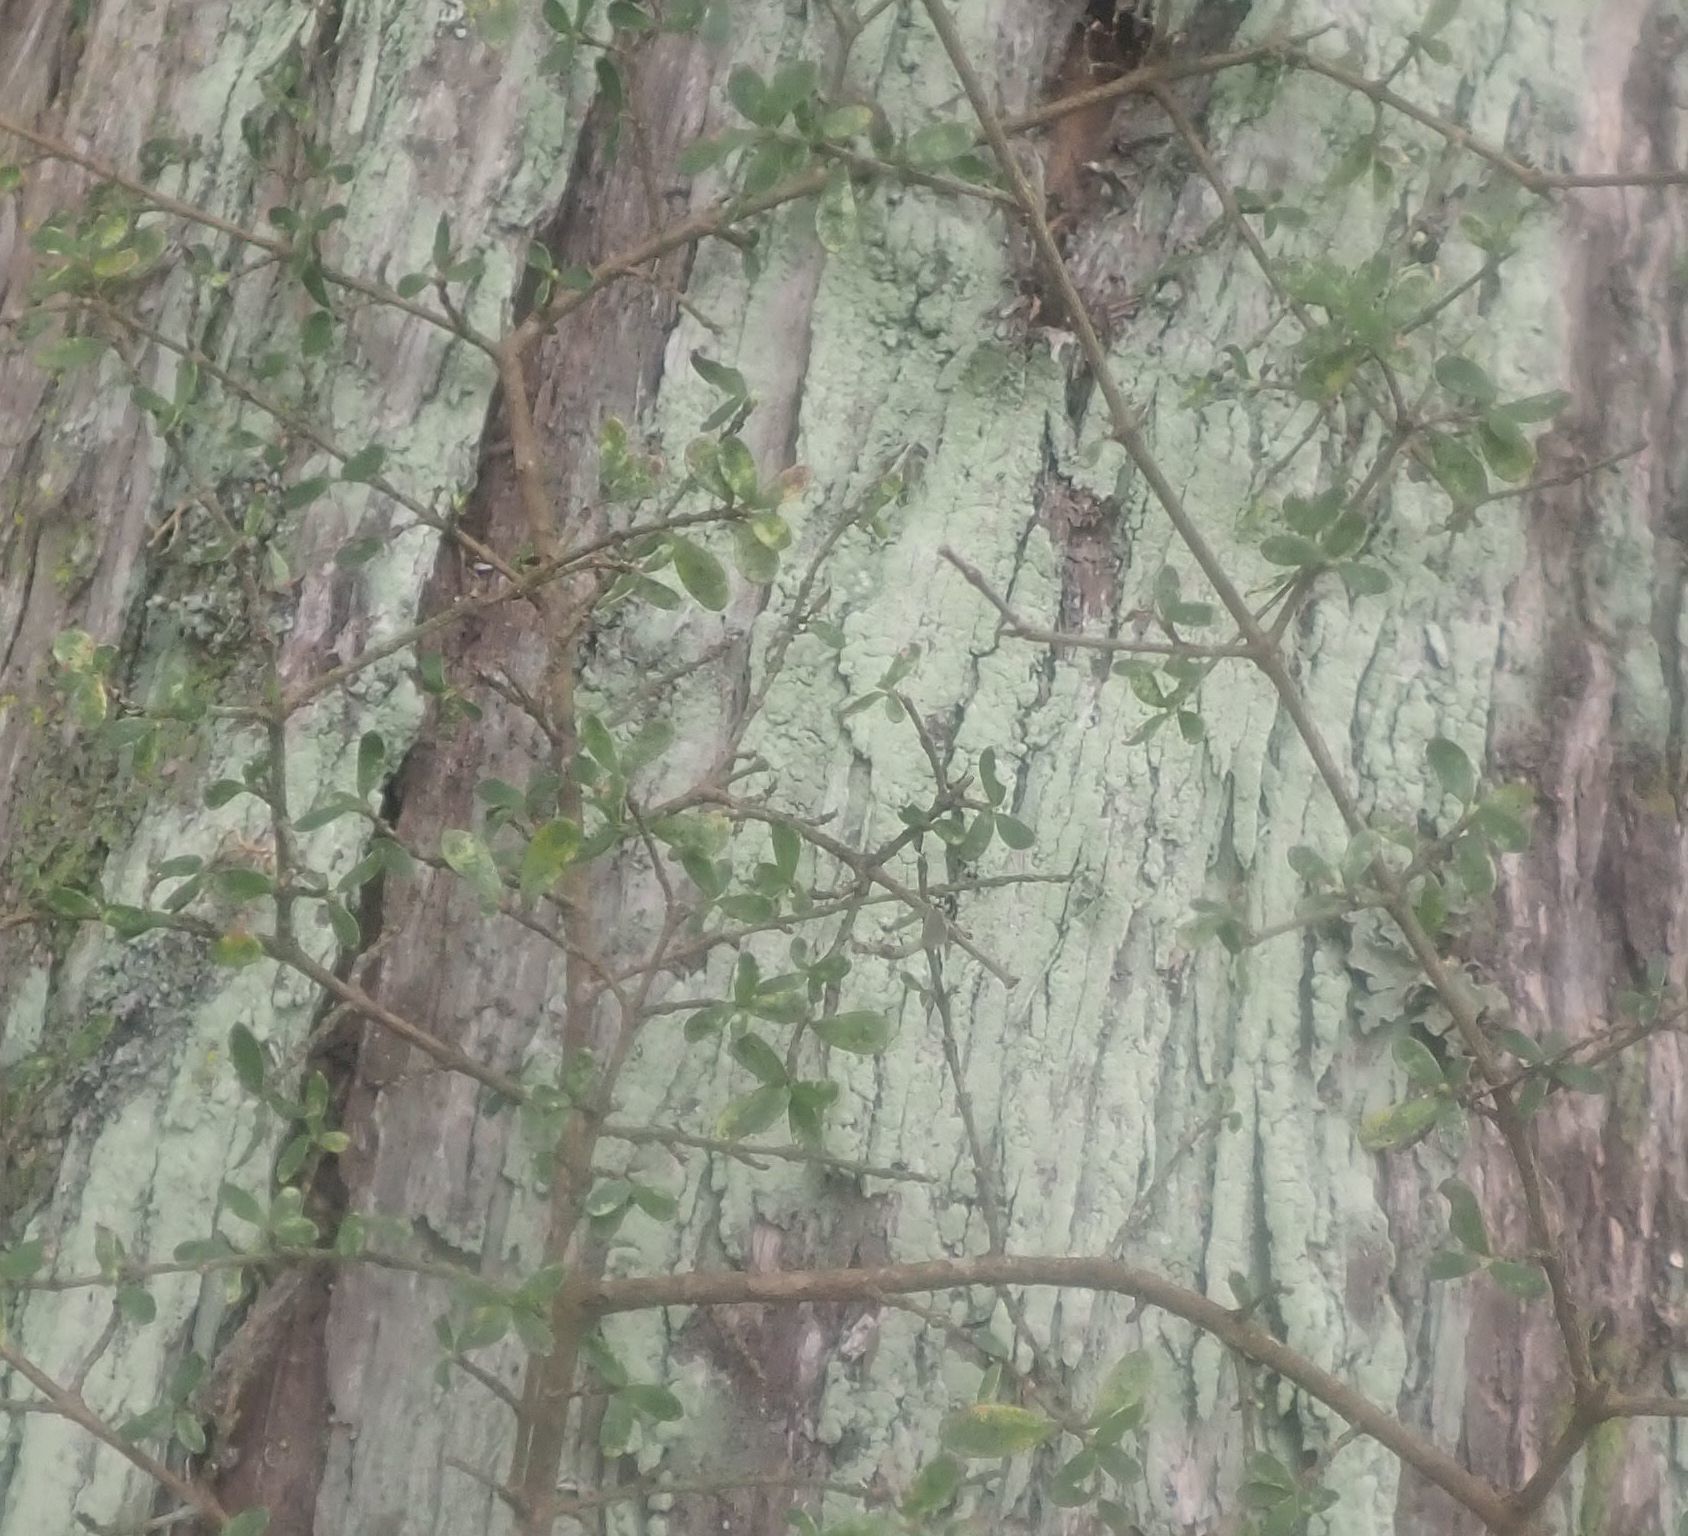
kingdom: Plantae
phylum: Tracheophyta
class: Magnoliopsida
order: Gentianales
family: Rubiaceae
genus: Coprosma
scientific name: Coprosma dumosa
